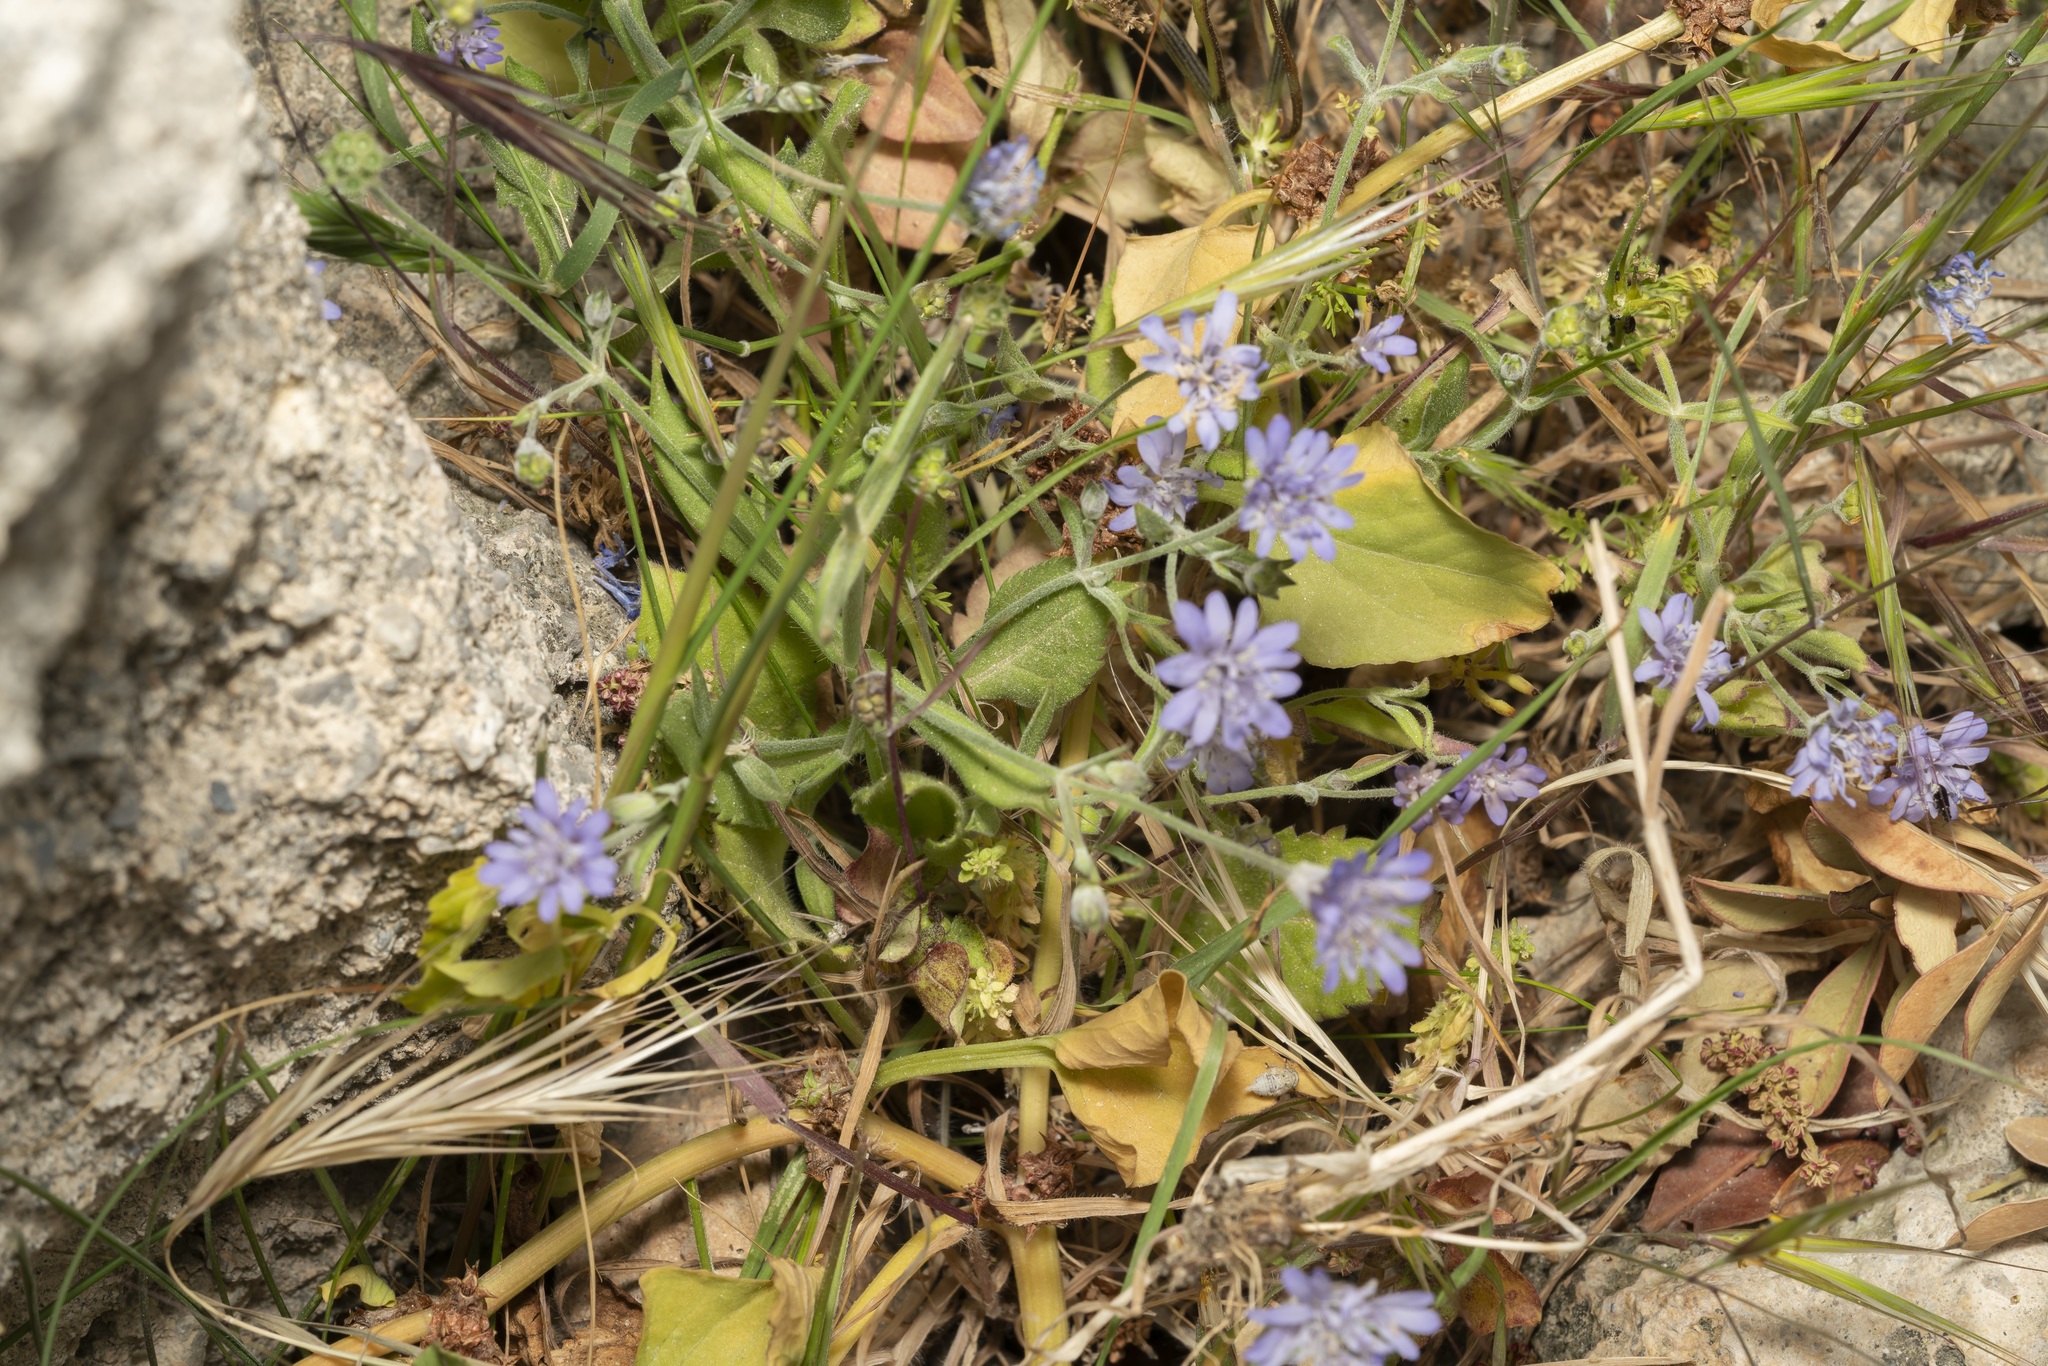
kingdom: Plantae
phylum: Tracheophyta
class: Magnoliopsida
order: Dipsacales
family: Caprifoliaceae
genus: Knautia
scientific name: Knautia integrifolia
